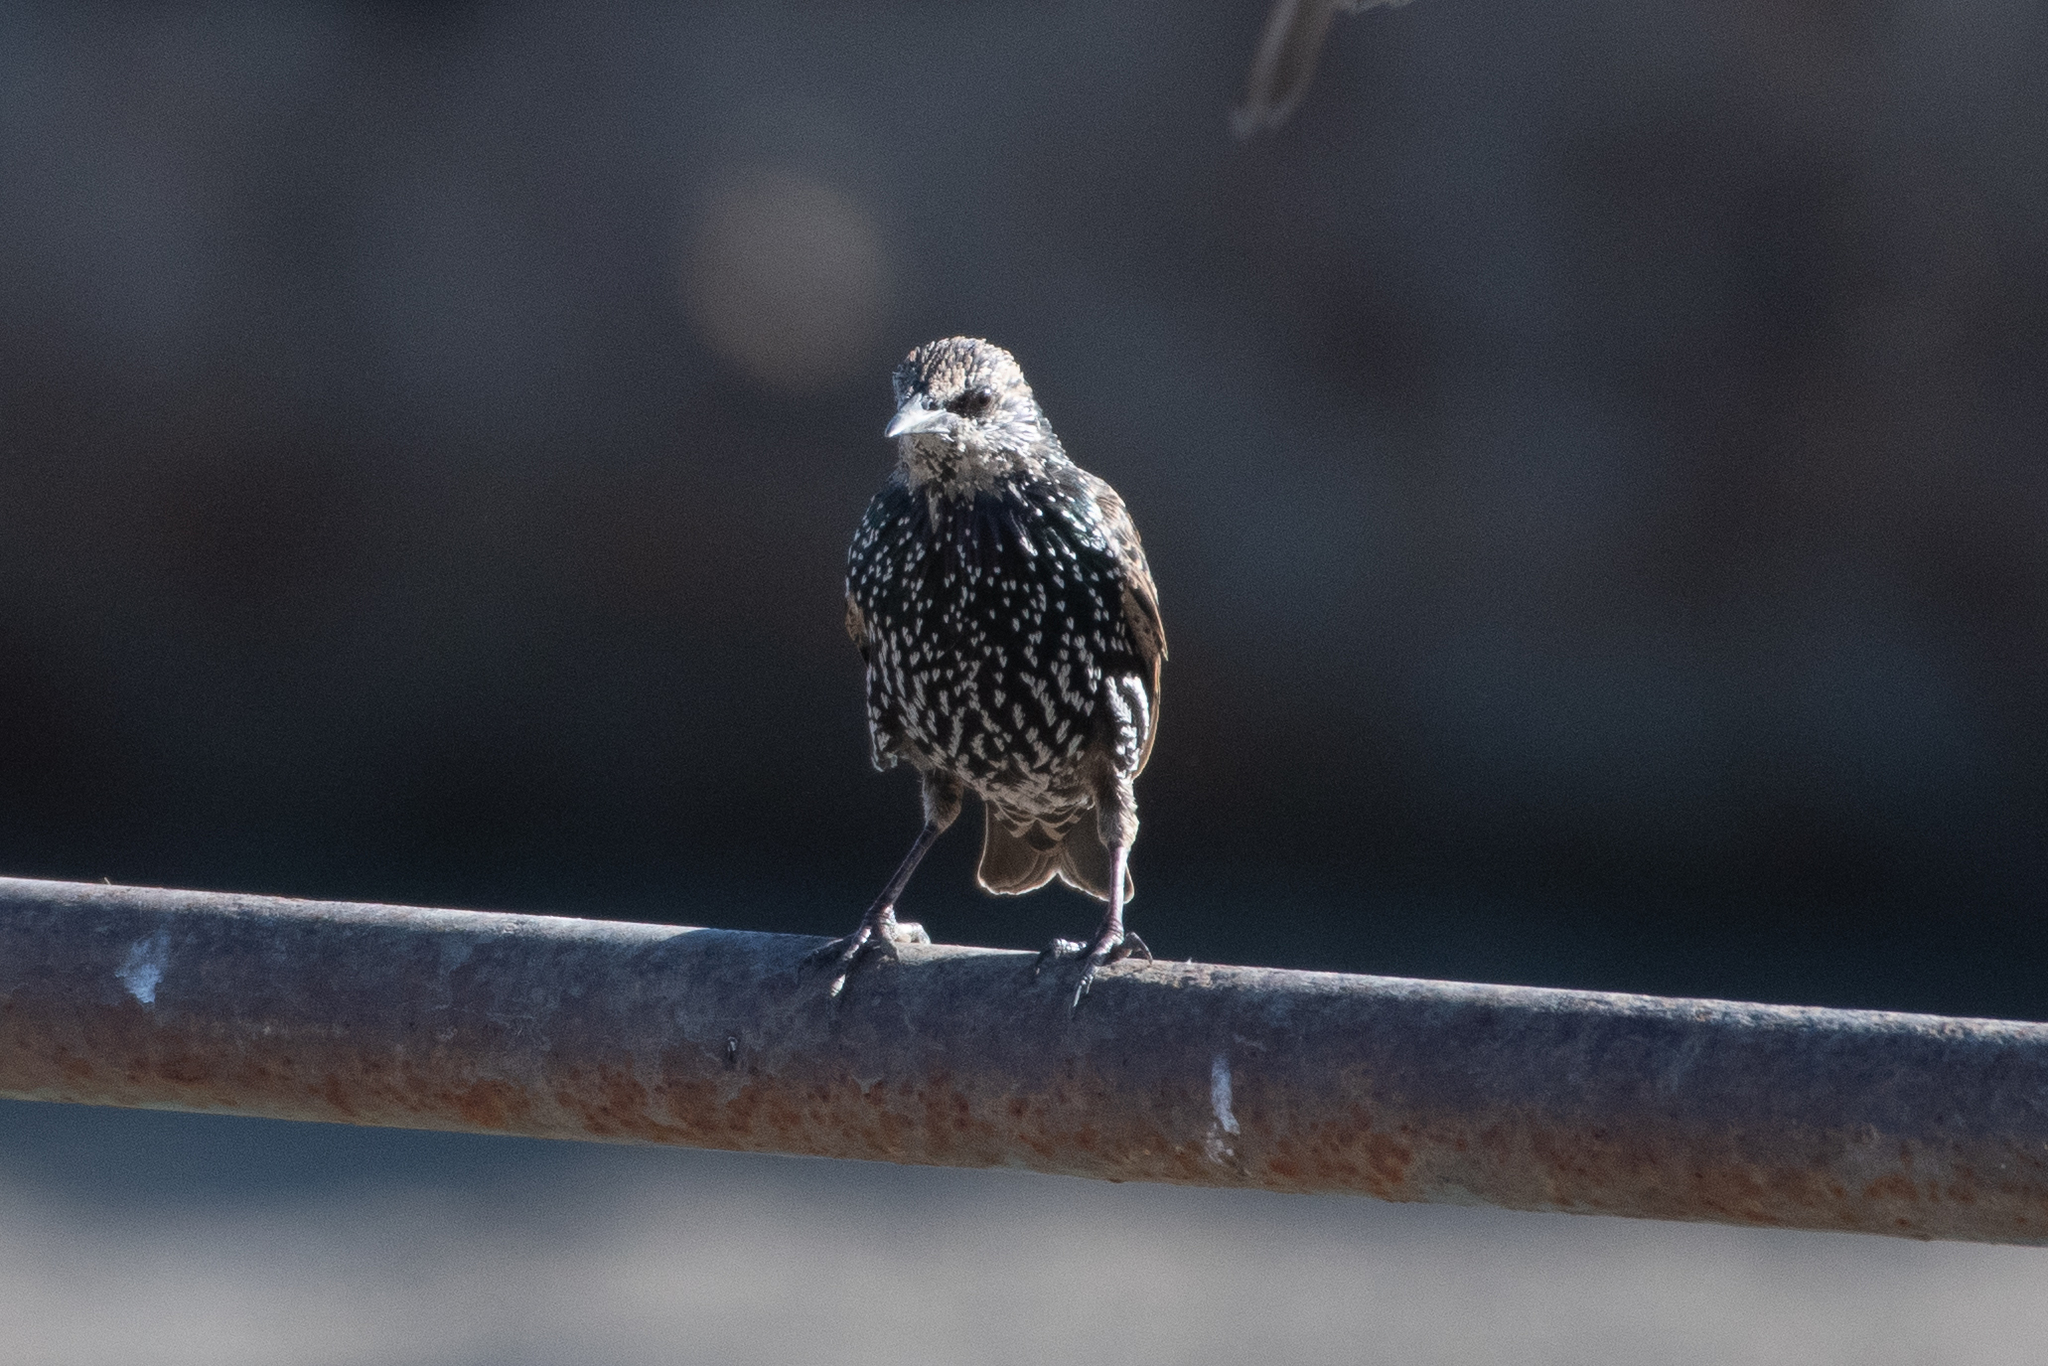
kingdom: Animalia
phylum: Chordata
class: Aves
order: Passeriformes
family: Sturnidae
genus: Sturnus
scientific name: Sturnus vulgaris
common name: Common starling
